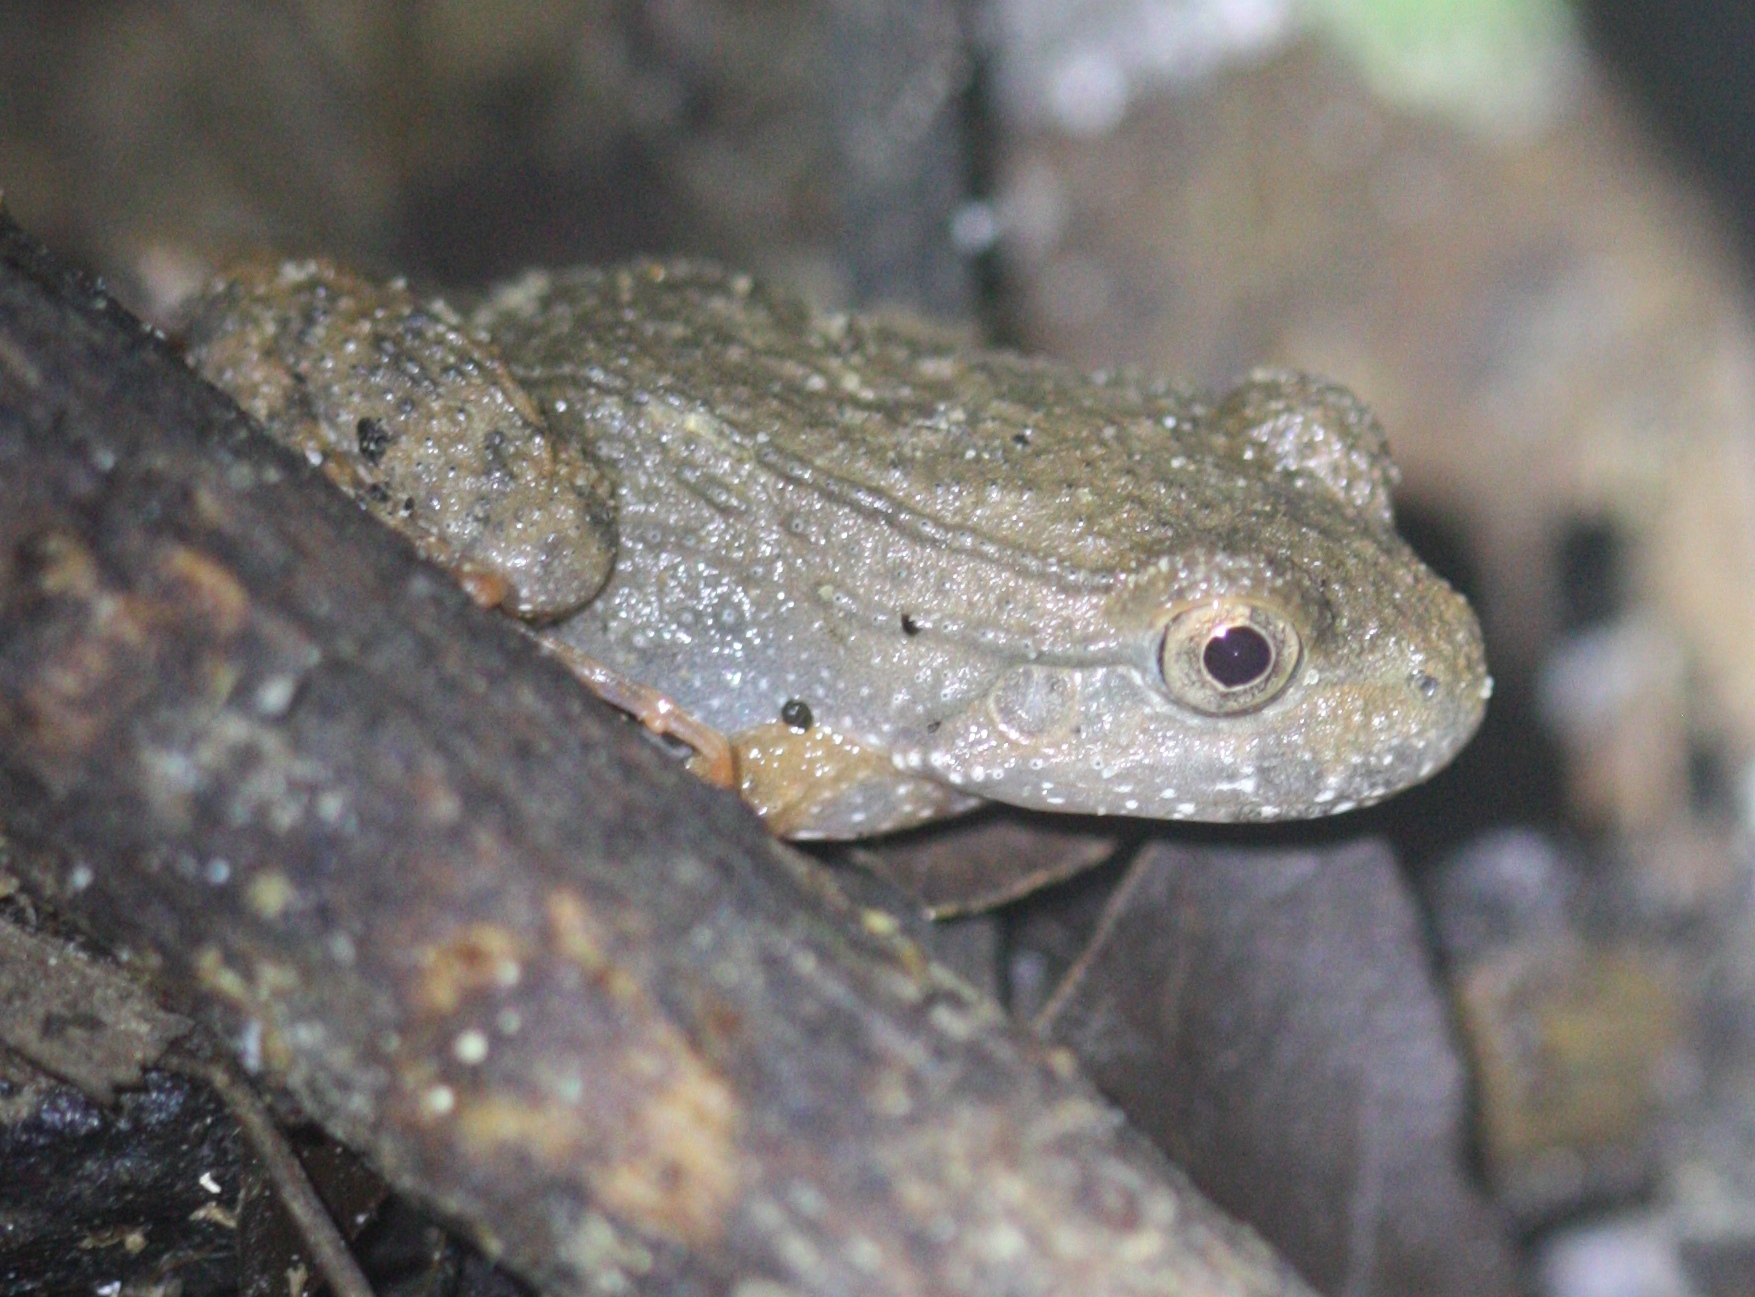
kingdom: Animalia
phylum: Chordata
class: Amphibia
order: Anura
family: Leptodactylidae
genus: Leptodactylus
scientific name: Leptodactylus rhodonotus
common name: Peru white-lipped frog
